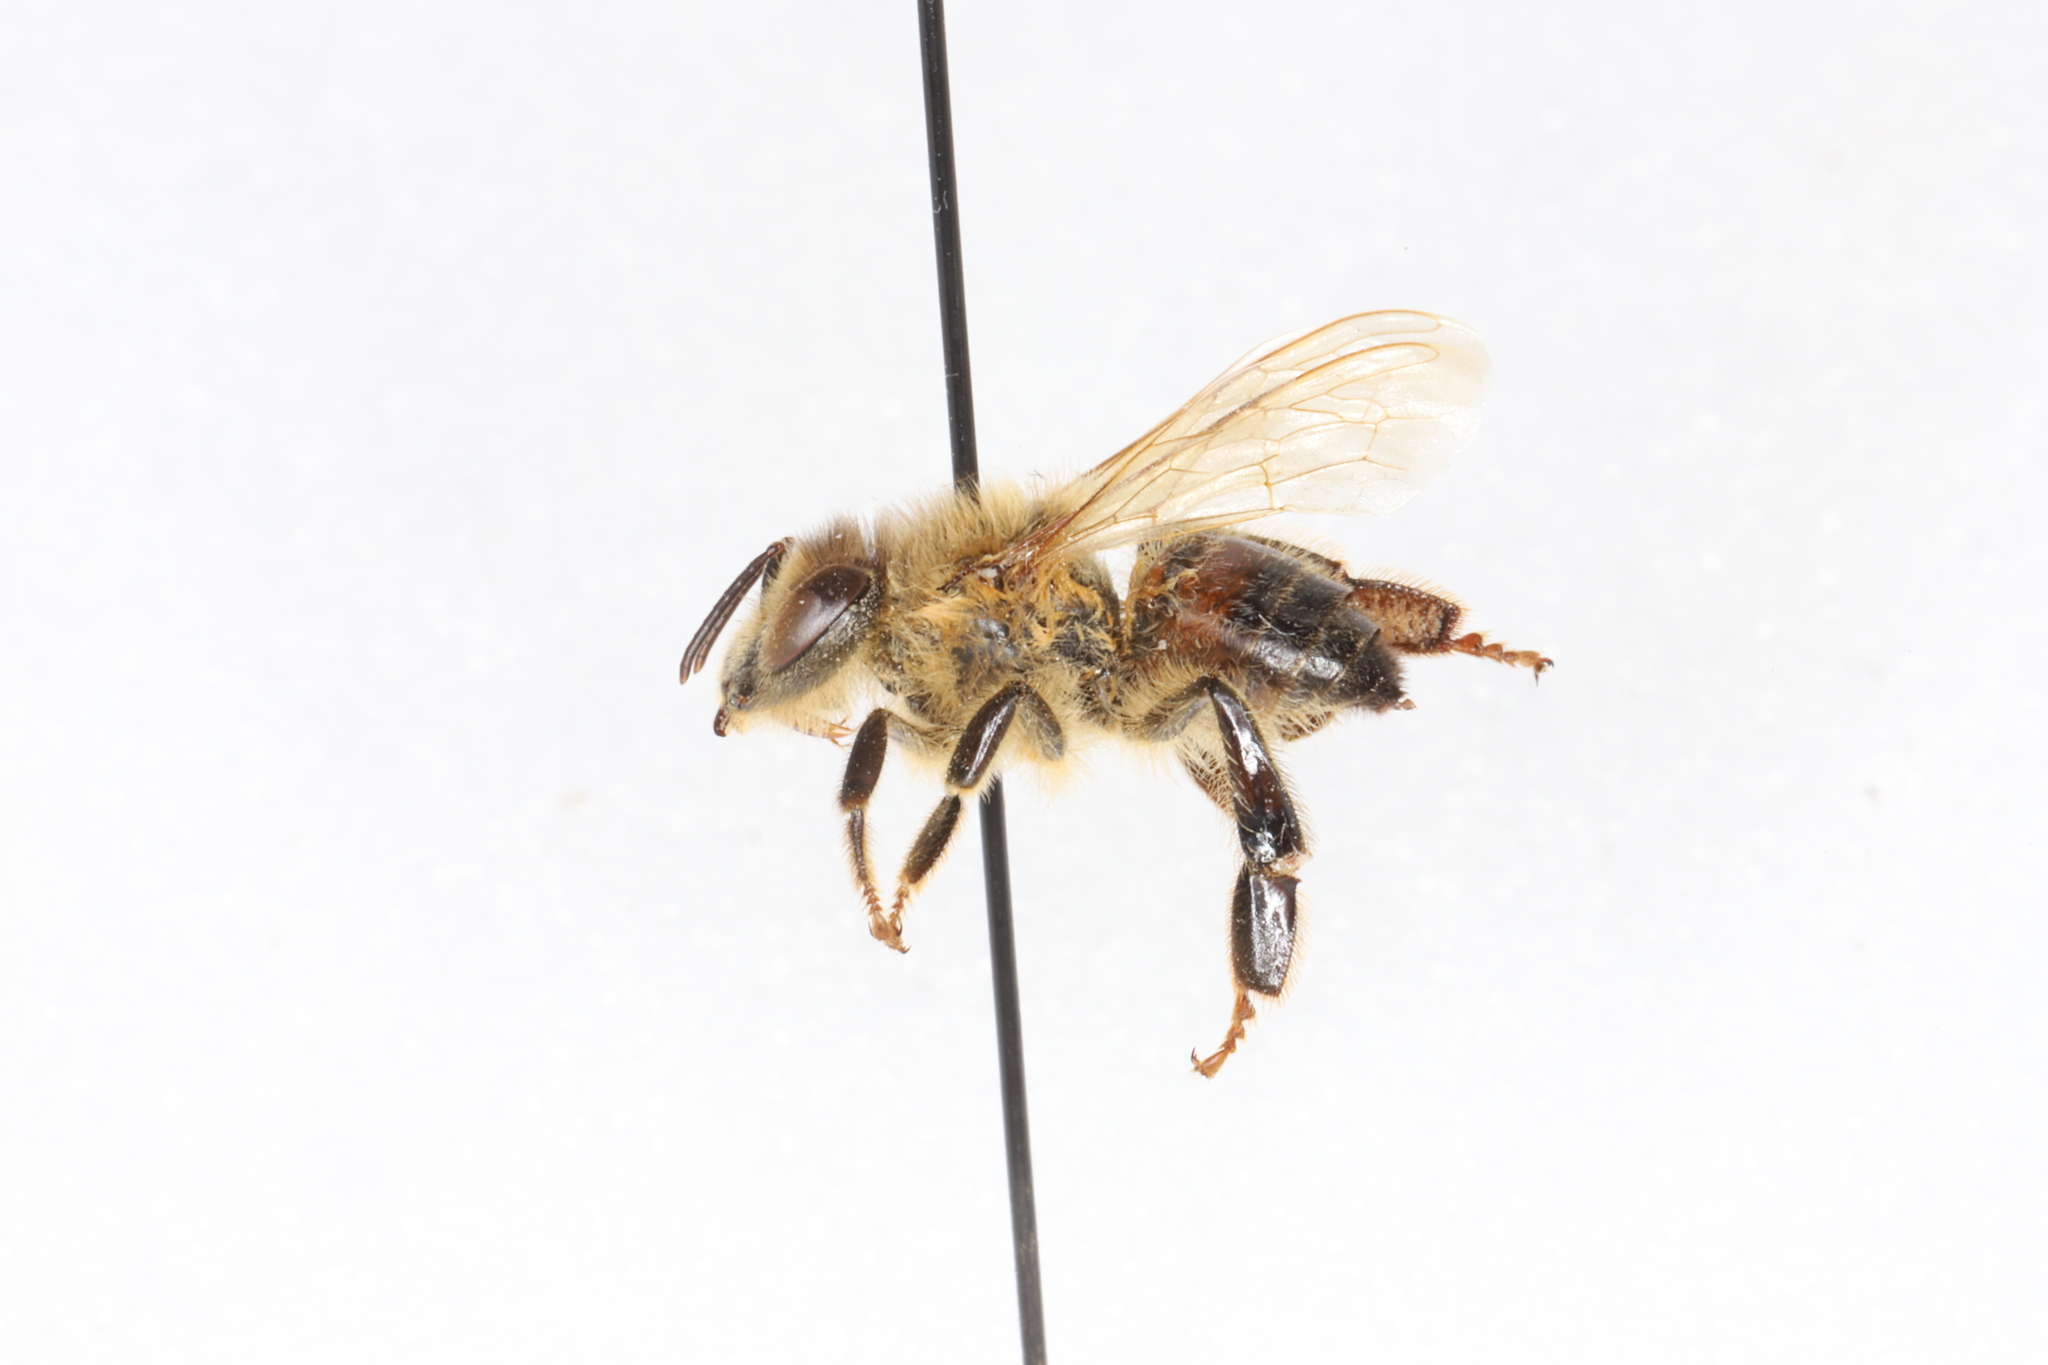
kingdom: Animalia
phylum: Arthropoda
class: Insecta
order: Hymenoptera
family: Apidae
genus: Apis
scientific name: Apis mellifera
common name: Honey bee
